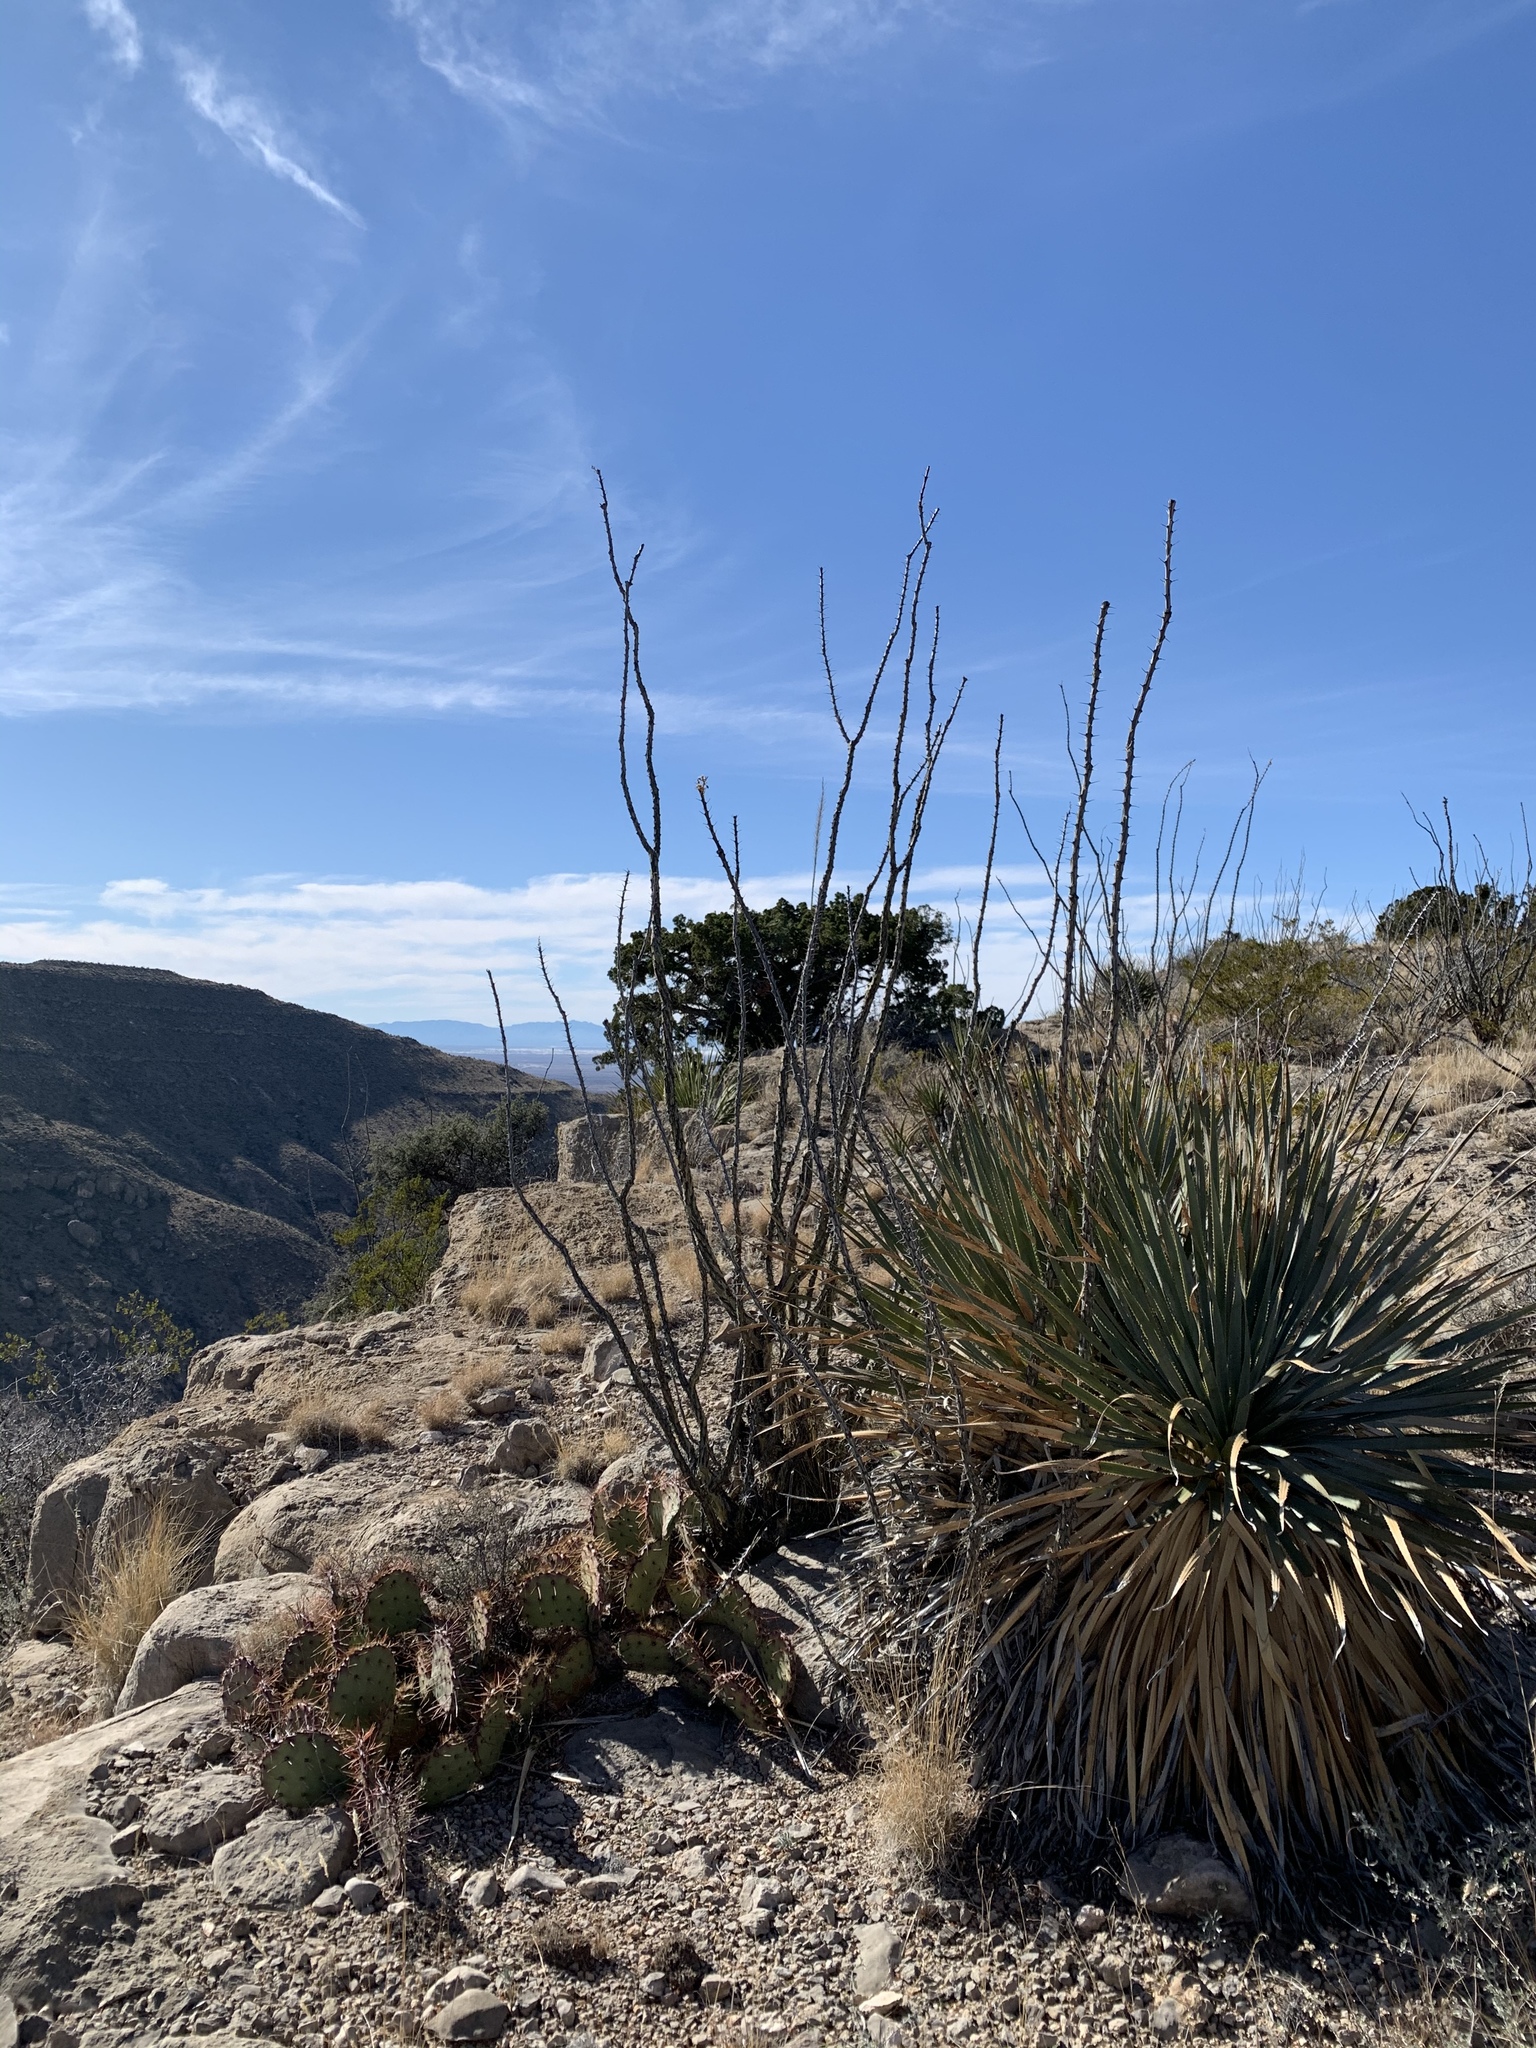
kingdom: Plantae
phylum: Tracheophyta
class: Liliopsida
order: Asparagales
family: Asparagaceae
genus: Dasylirion
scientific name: Dasylirion wheeleri
